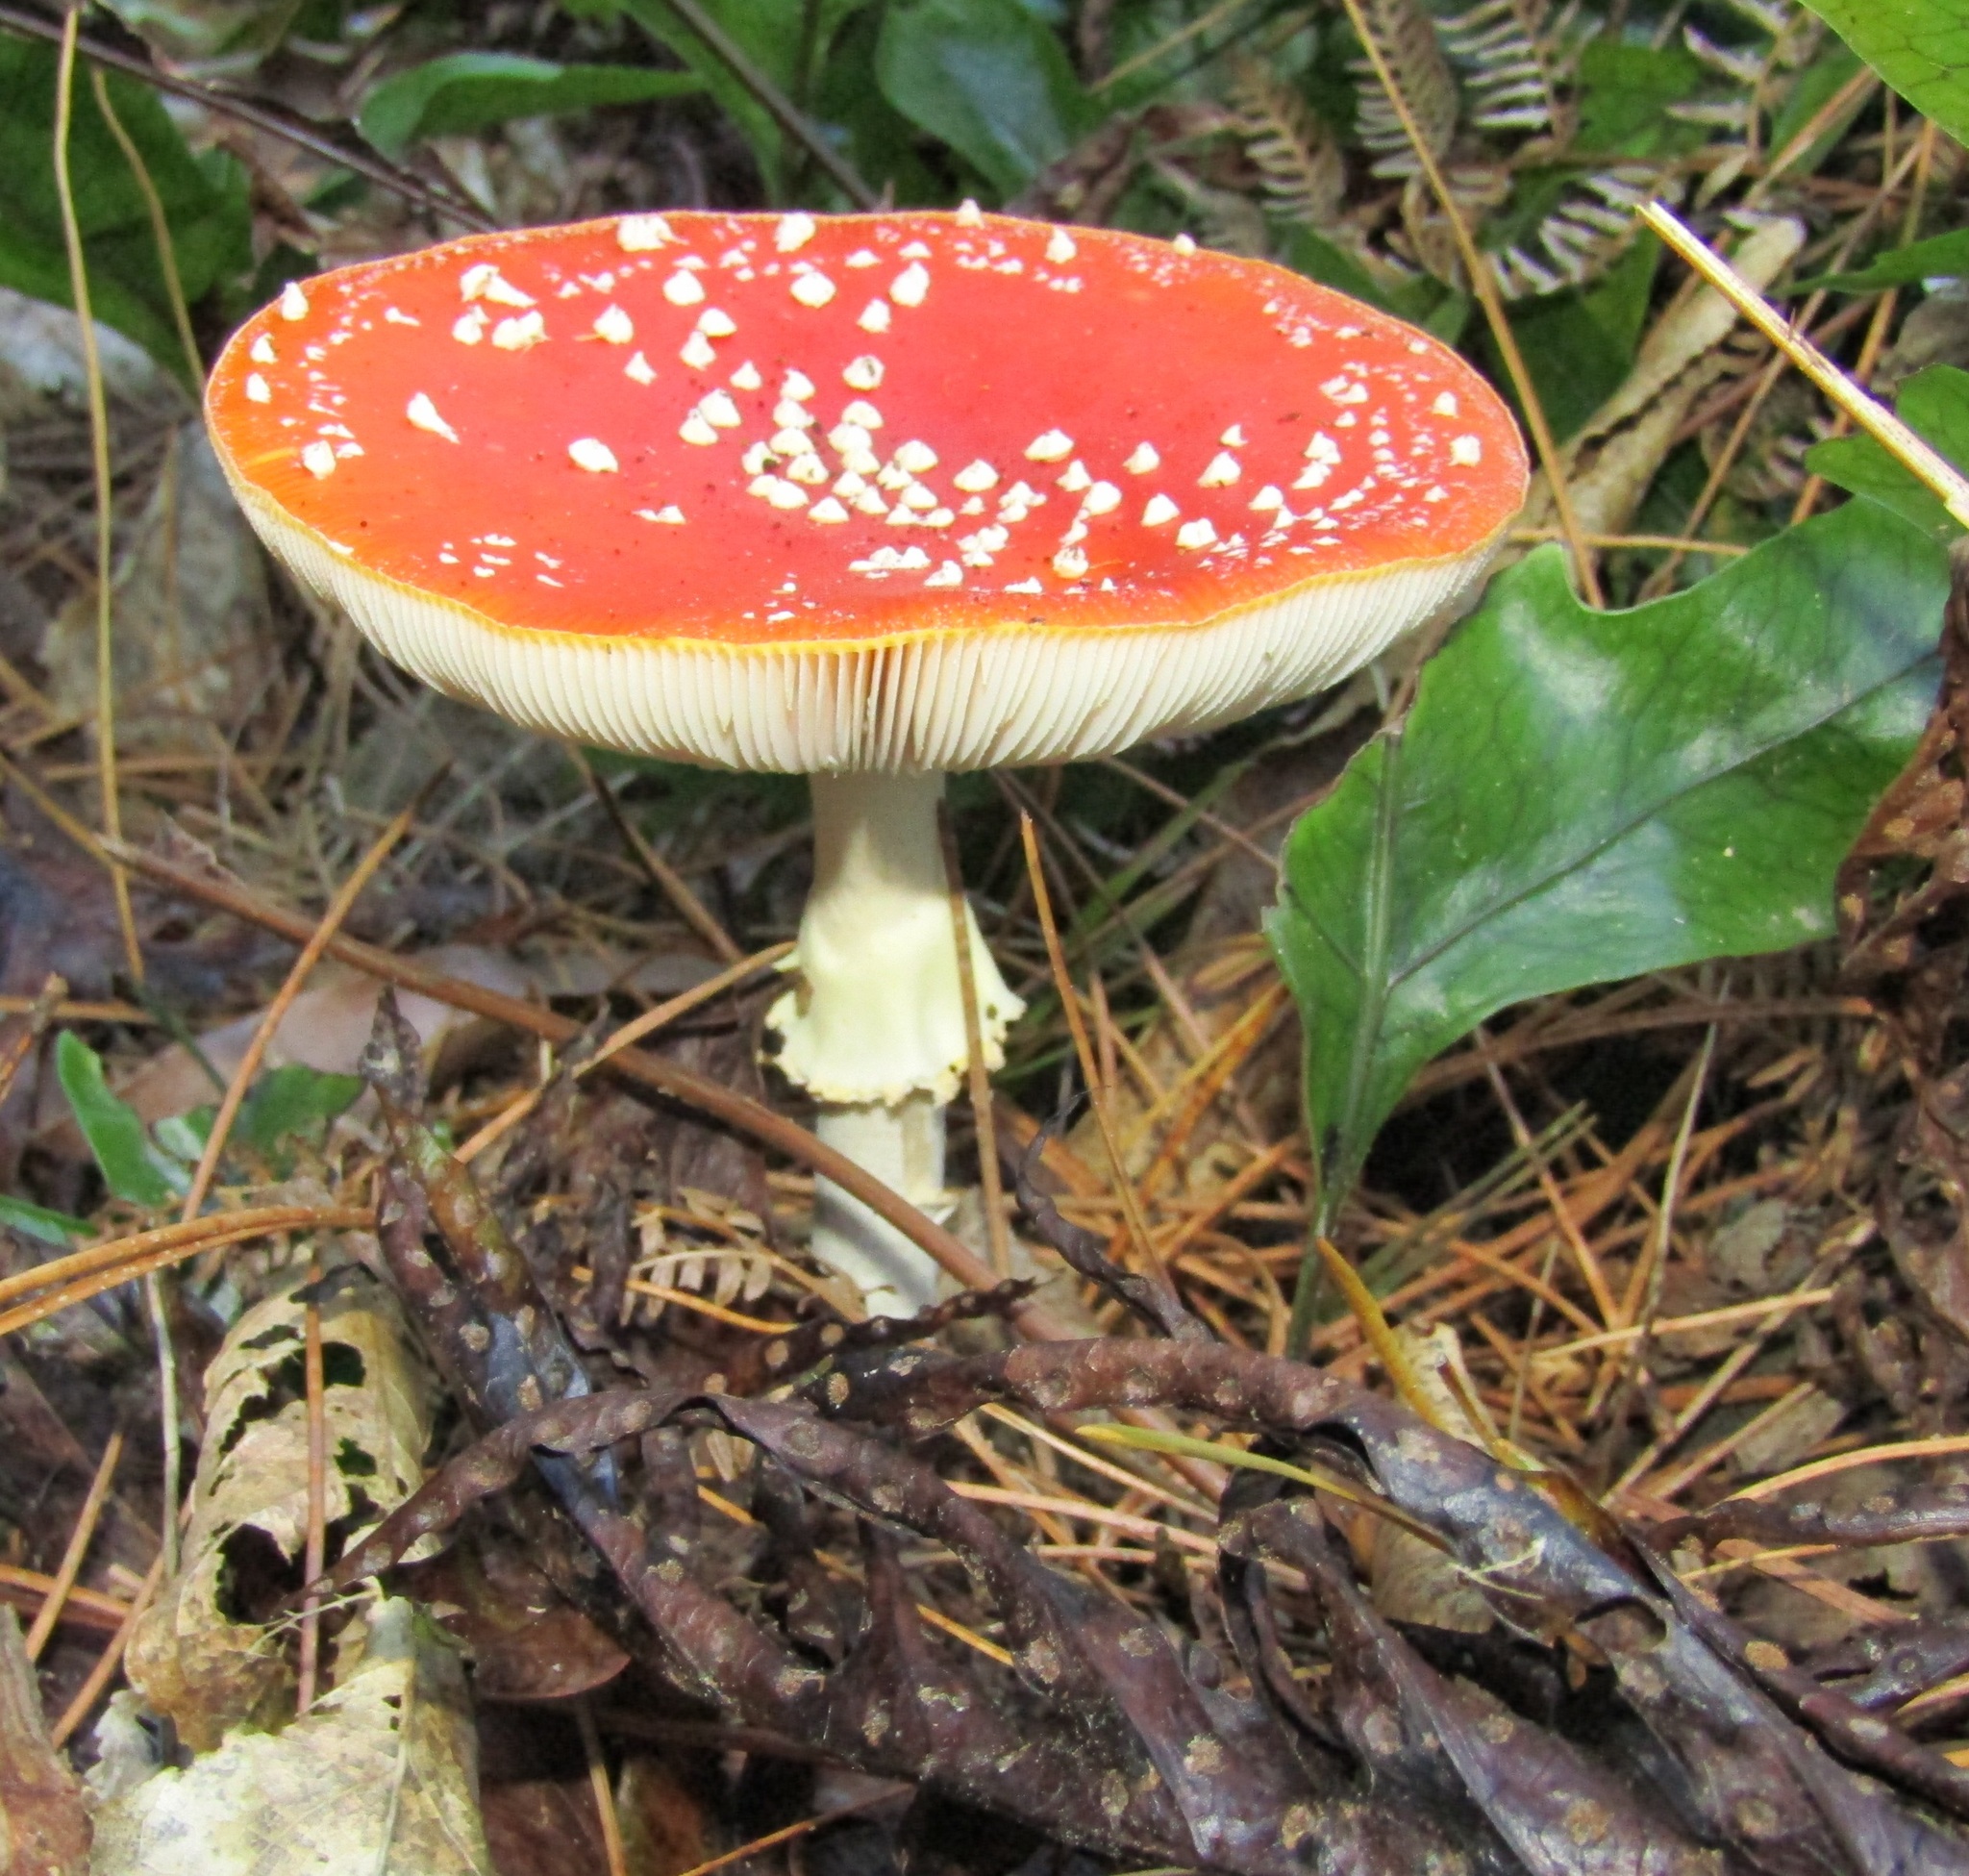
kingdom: Fungi
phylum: Basidiomycota
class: Agaricomycetes
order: Agaricales
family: Amanitaceae
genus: Amanita
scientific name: Amanita muscaria
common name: Fly agaric
